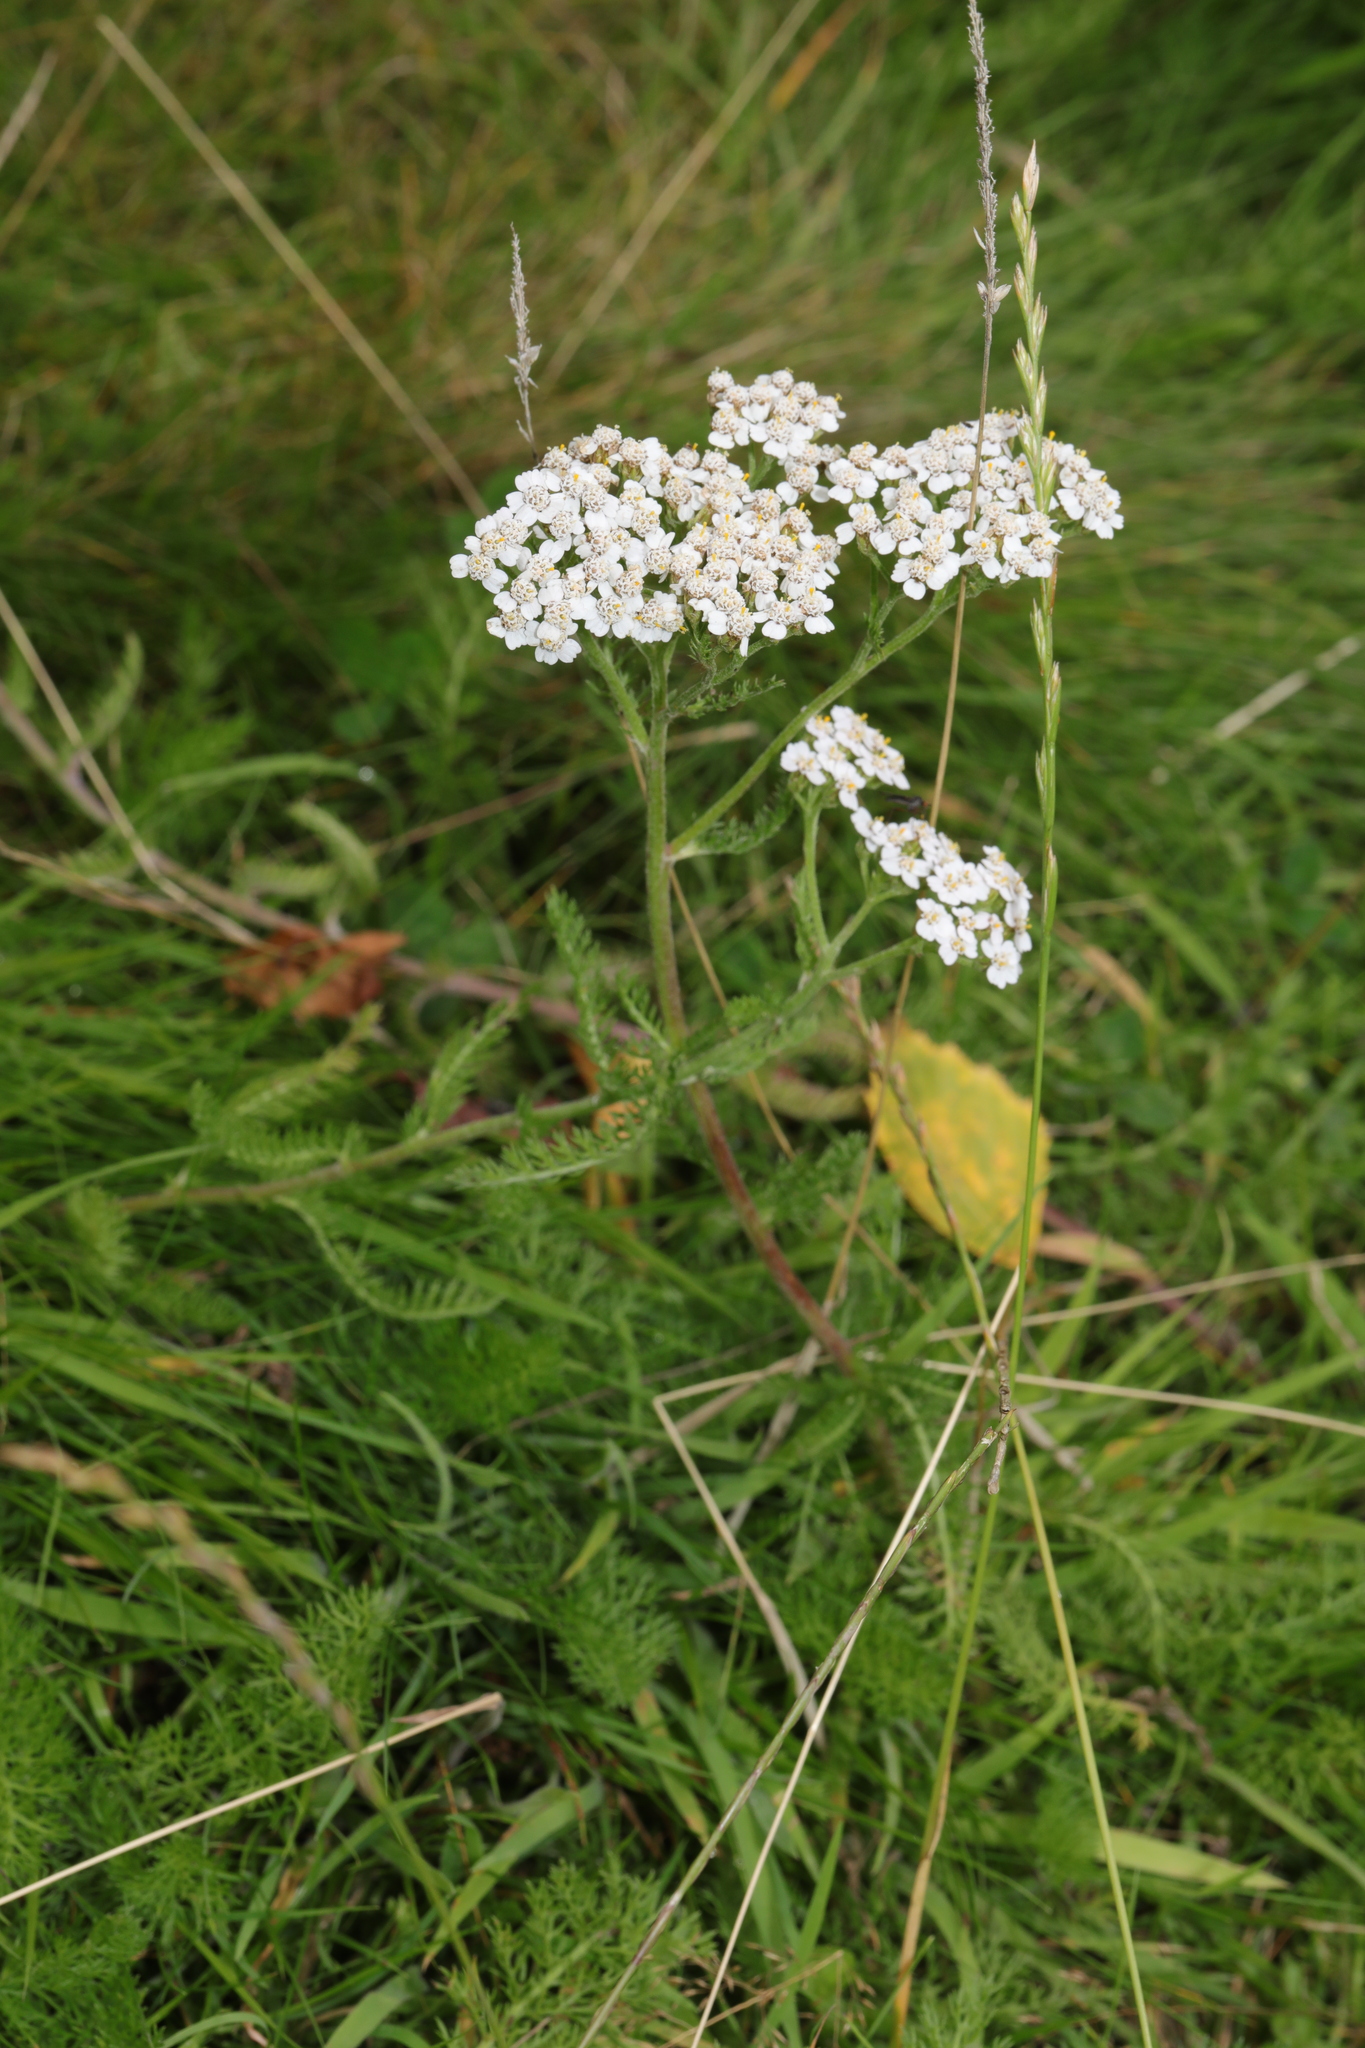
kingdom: Plantae
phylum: Tracheophyta
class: Magnoliopsida
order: Asterales
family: Asteraceae
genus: Achillea
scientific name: Achillea millefolium
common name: Yarrow
